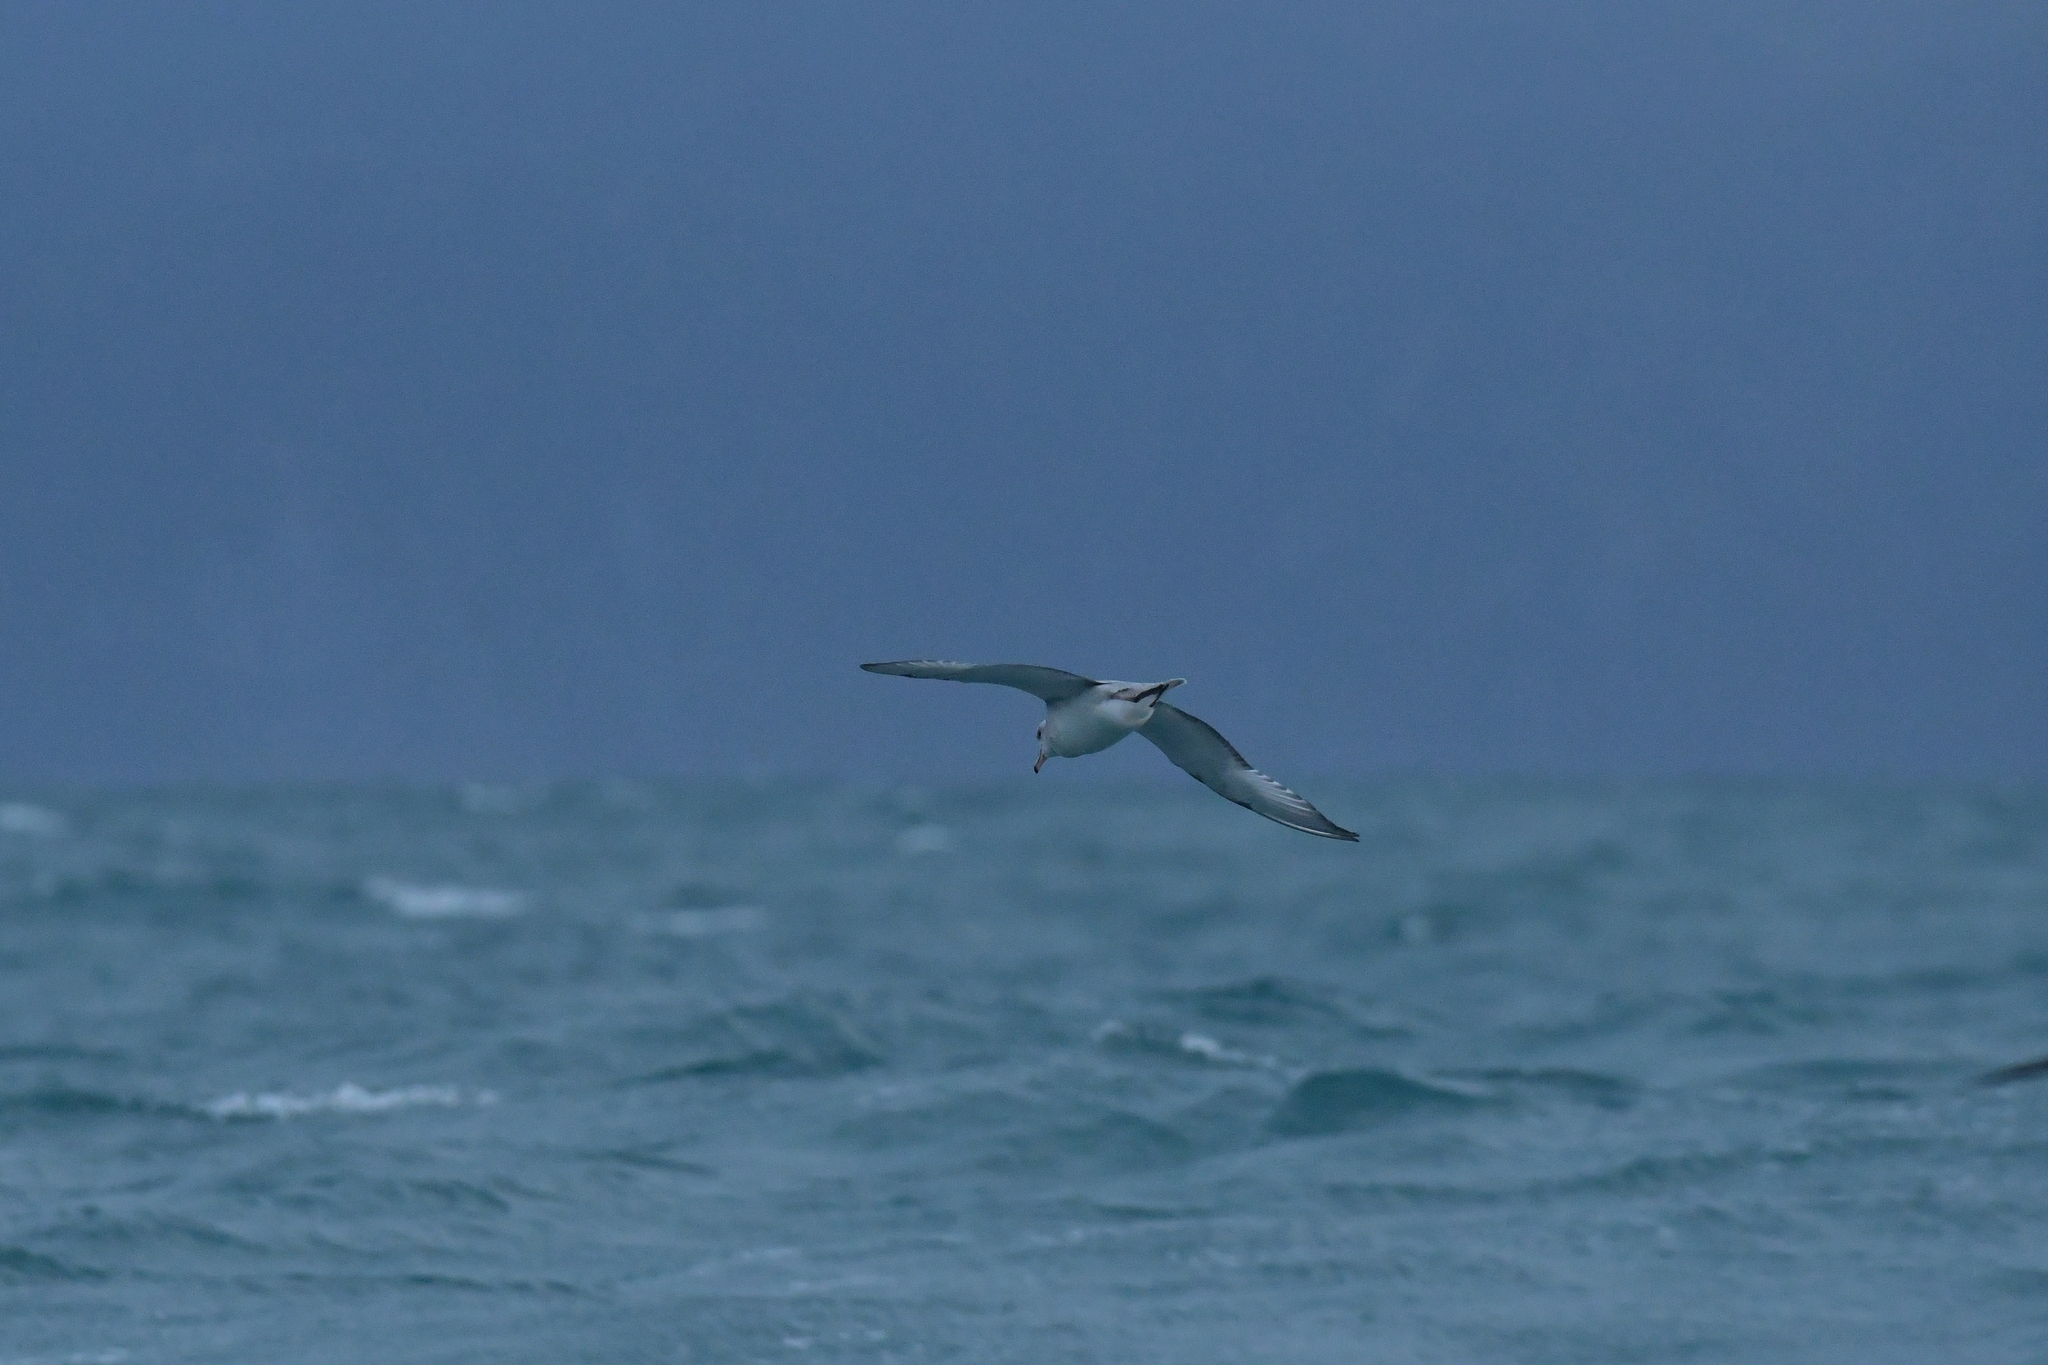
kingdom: Animalia
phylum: Chordata
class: Aves
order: Procellariiformes
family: Procellariidae
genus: Fulmarus
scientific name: Fulmarus glacialoides
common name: Southern fulmar
